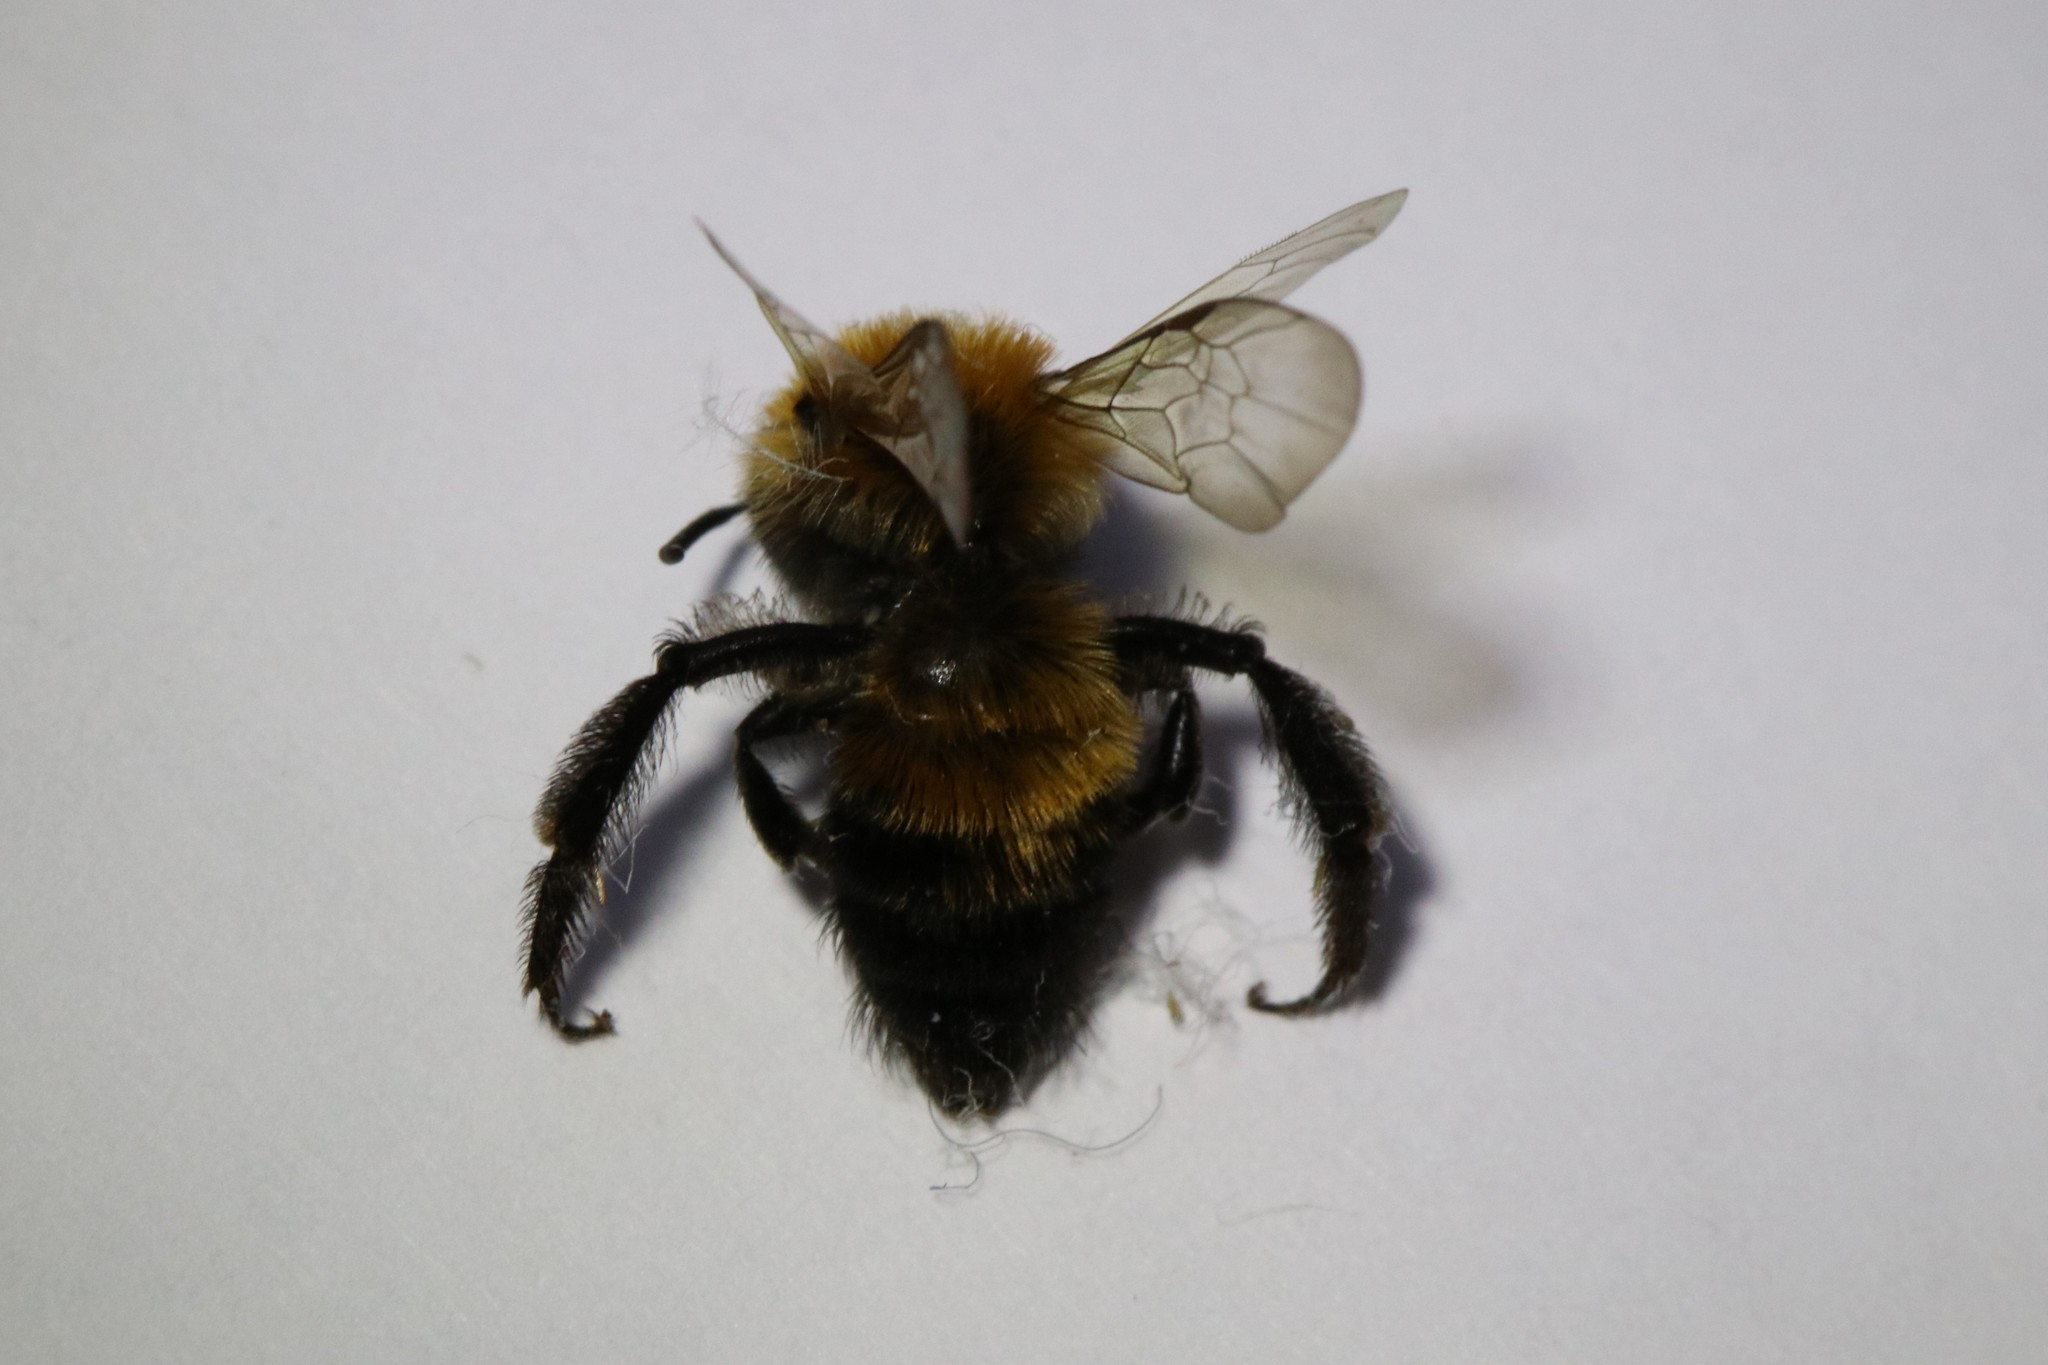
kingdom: Animalia
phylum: Arthropoda
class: Insecta
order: Hymenoptera
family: Andrenidae
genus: Andrena
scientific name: Andrena milwaukeensis
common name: Milwaukee mining bee
